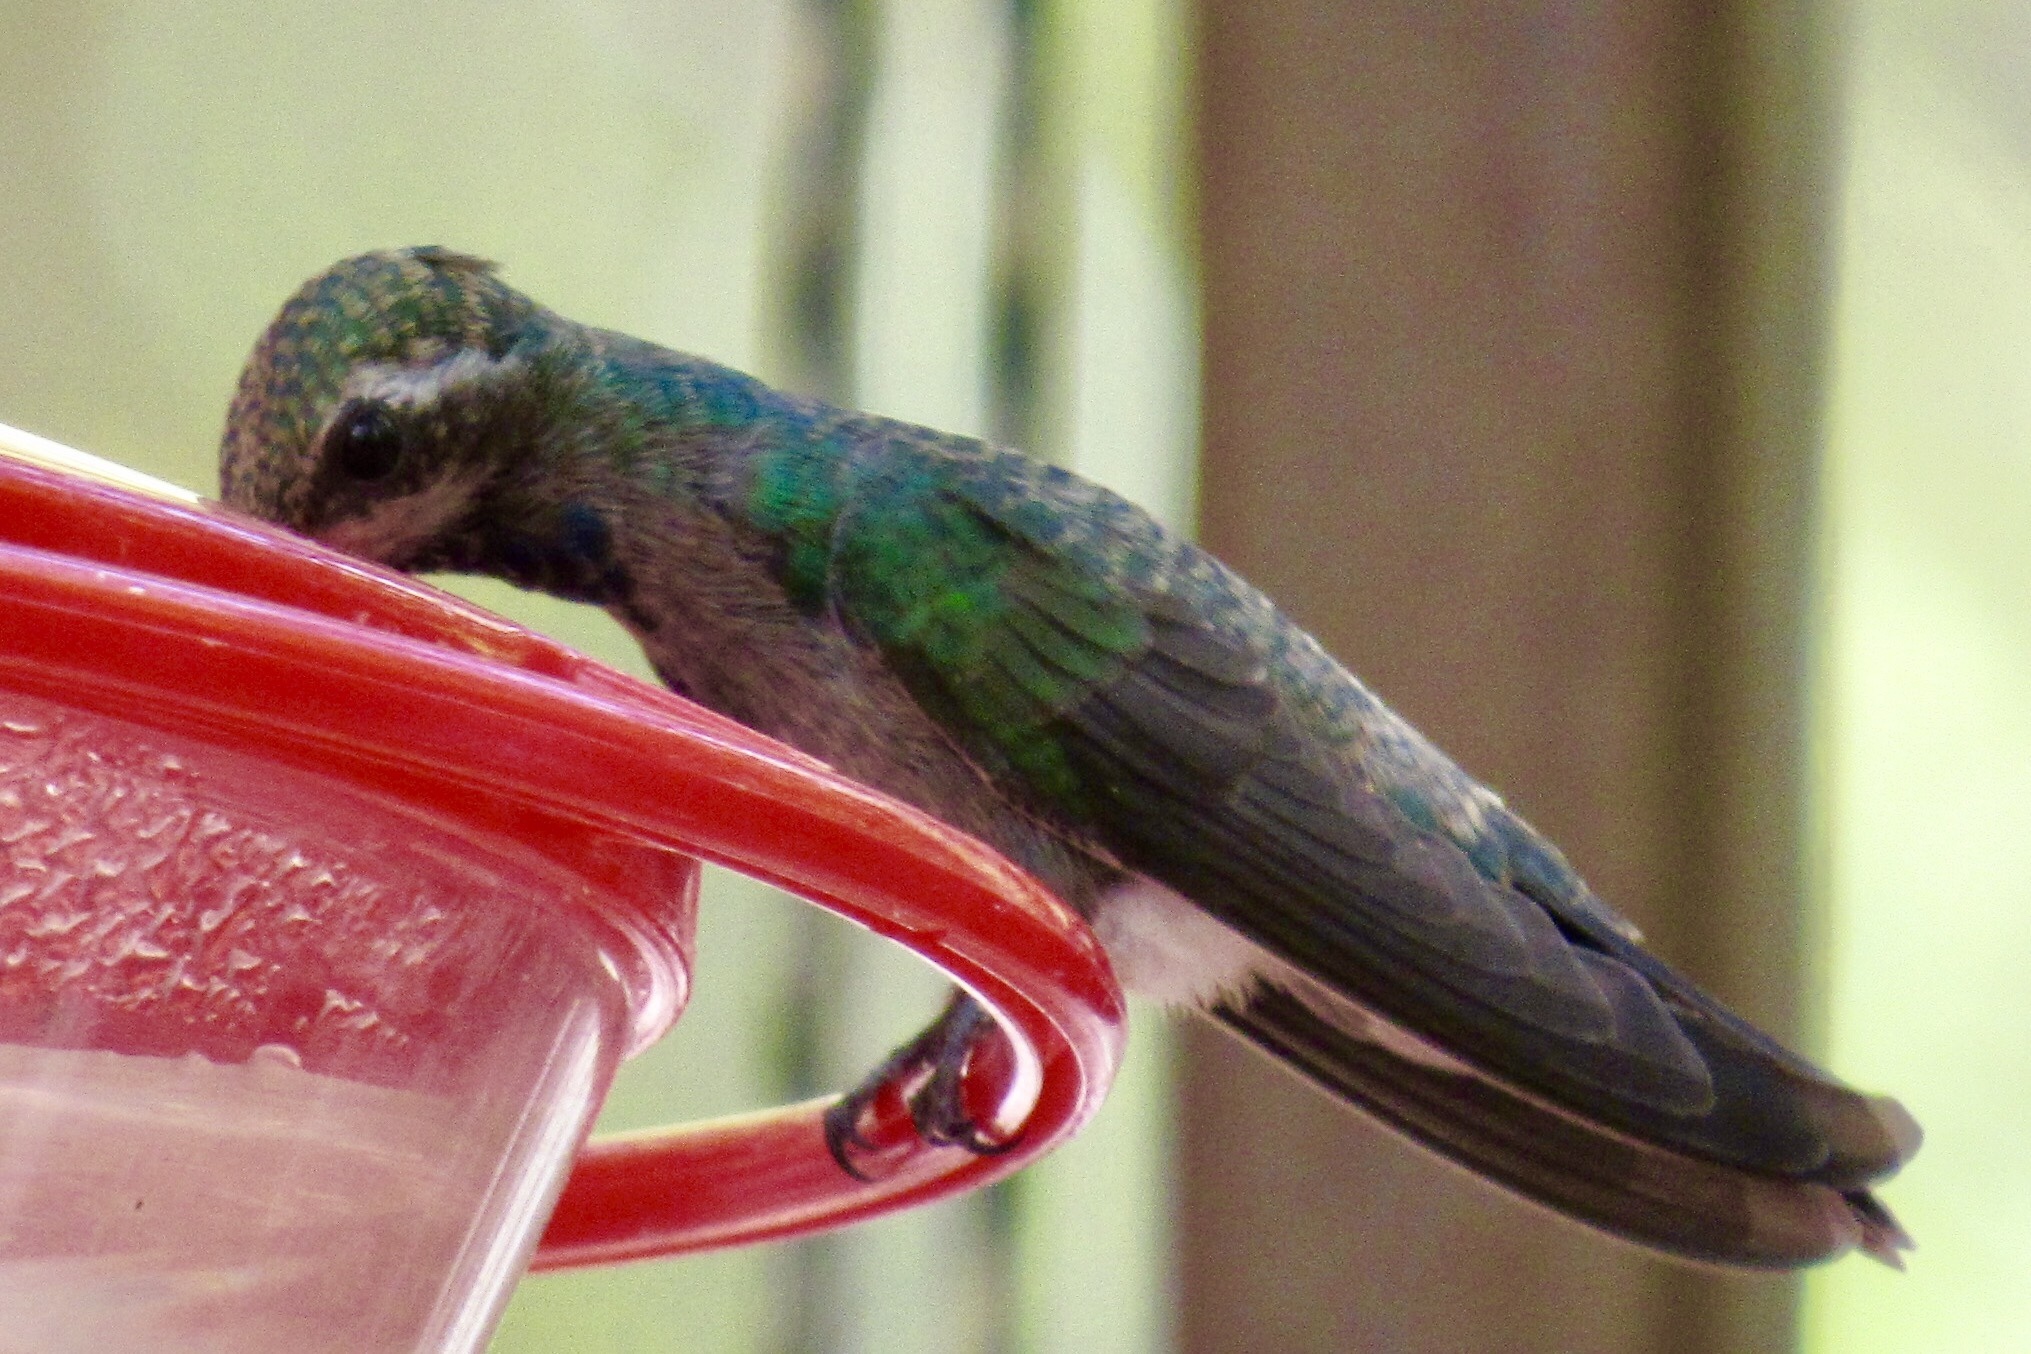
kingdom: Animalia
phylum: Chordata
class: Aves
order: Apodiformes
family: Trochilidae
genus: Cynanthus
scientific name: Cynanthus latirostris
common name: Broad-billed hummingbird
